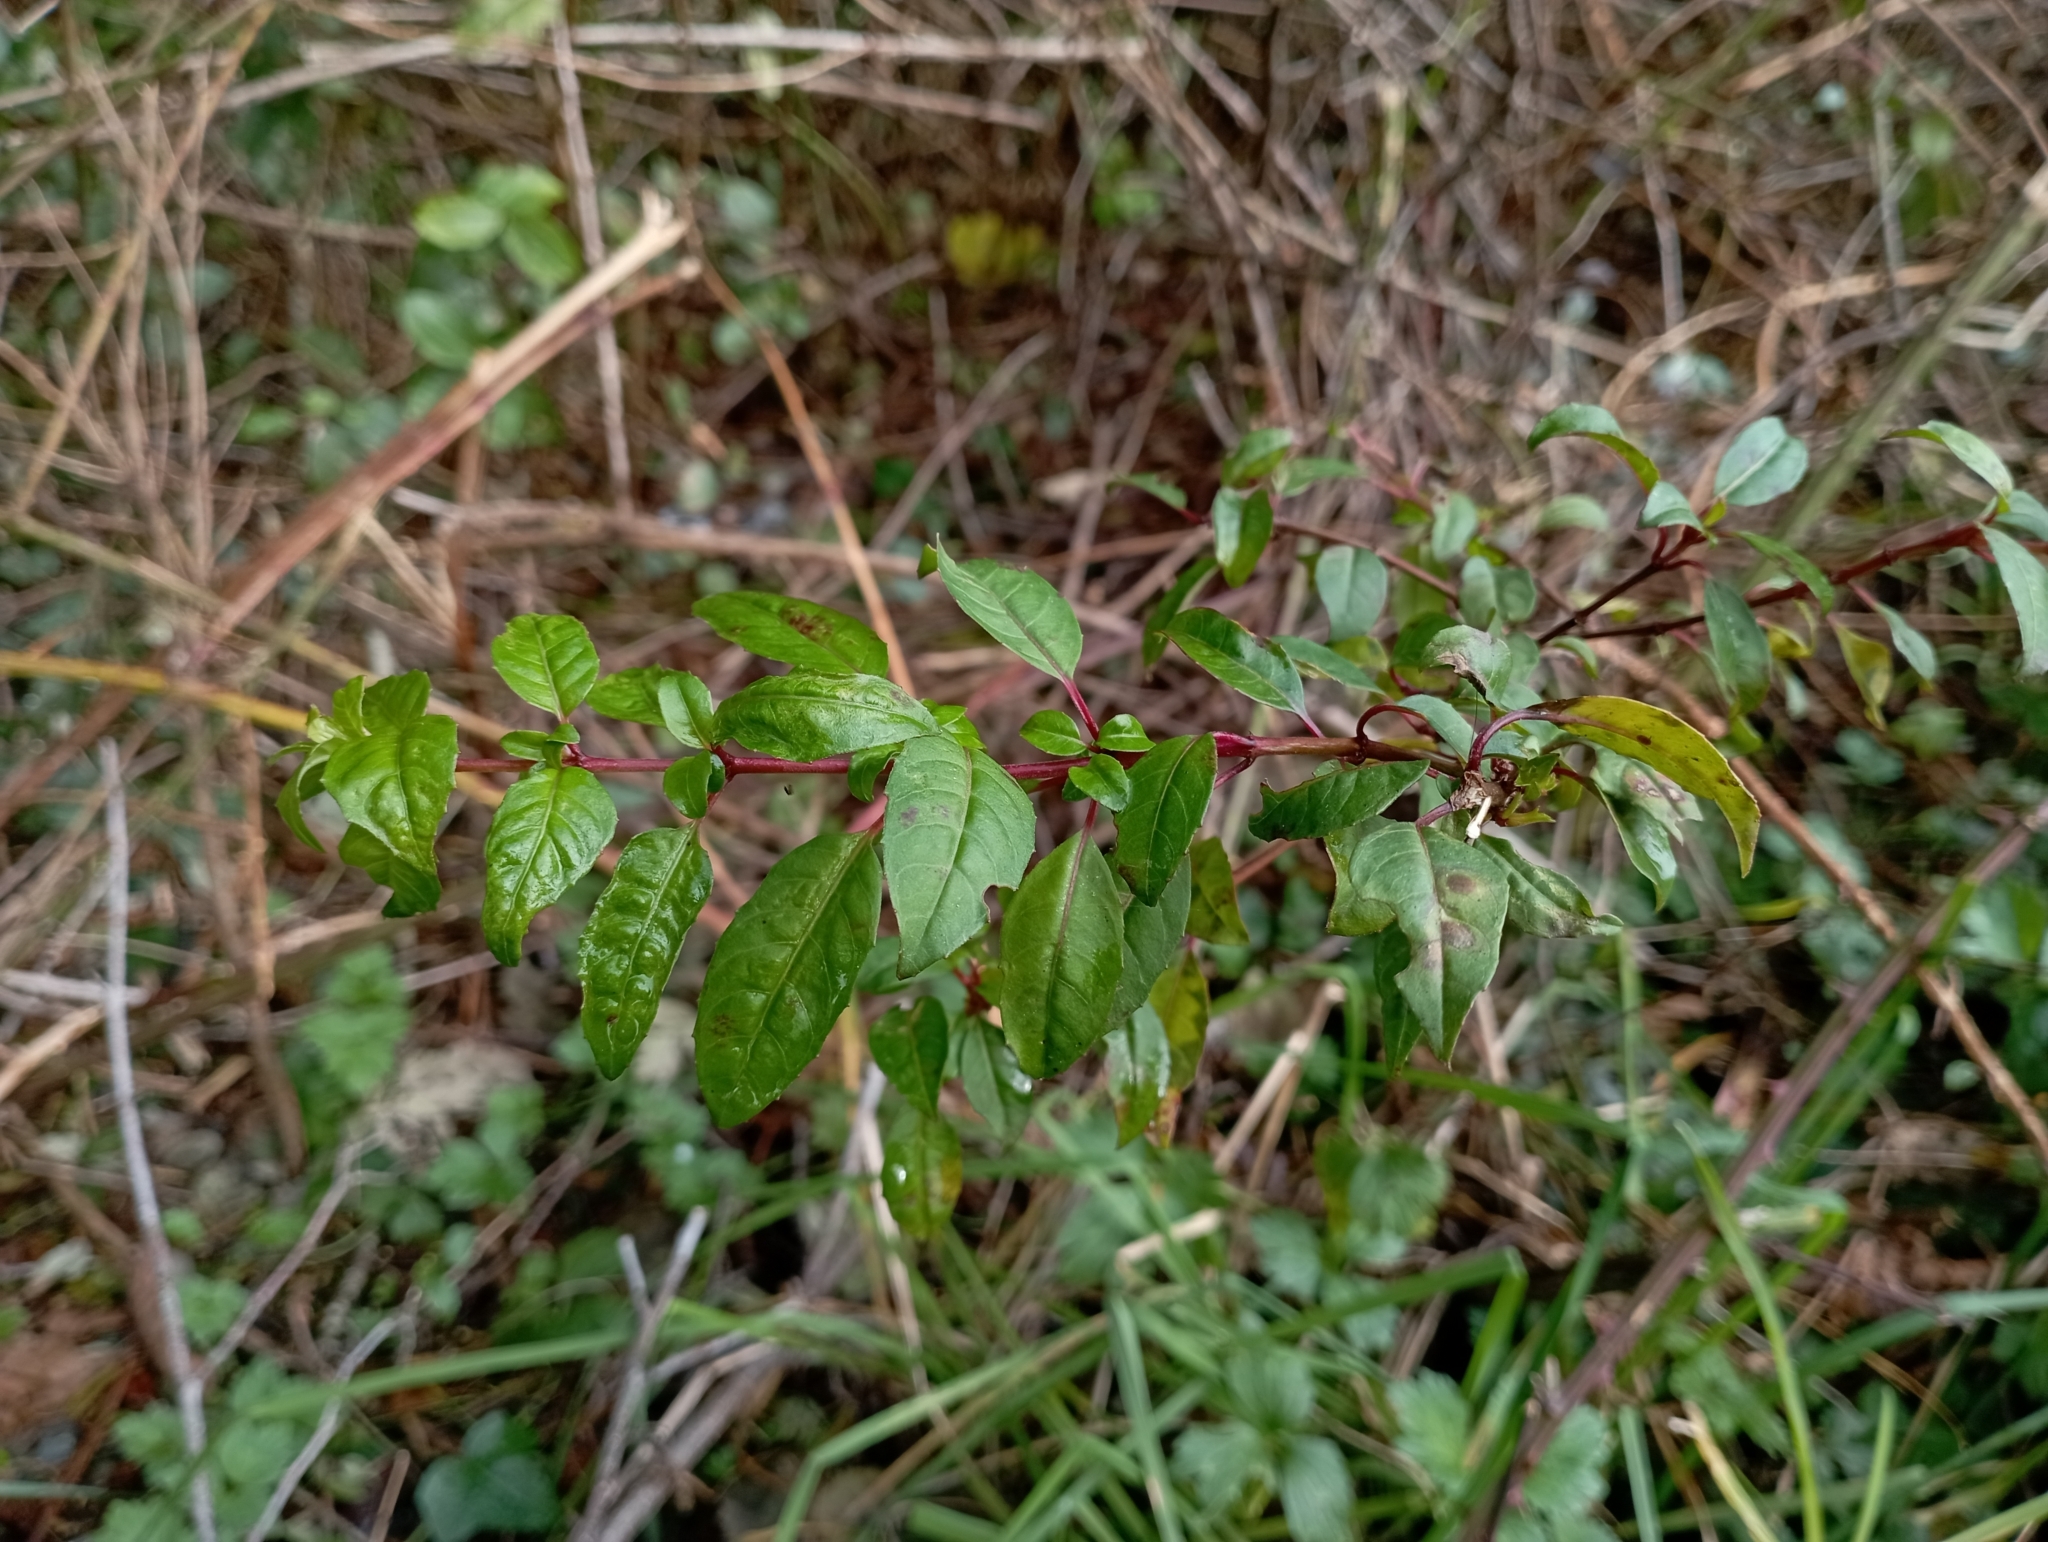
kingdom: Plantae
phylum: Tracheophyta
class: Magnoliopsida
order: Myrtales
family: Onagraceae
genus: Fuchsia
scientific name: Fuchsia magellanica
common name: Hardy fuchsia
